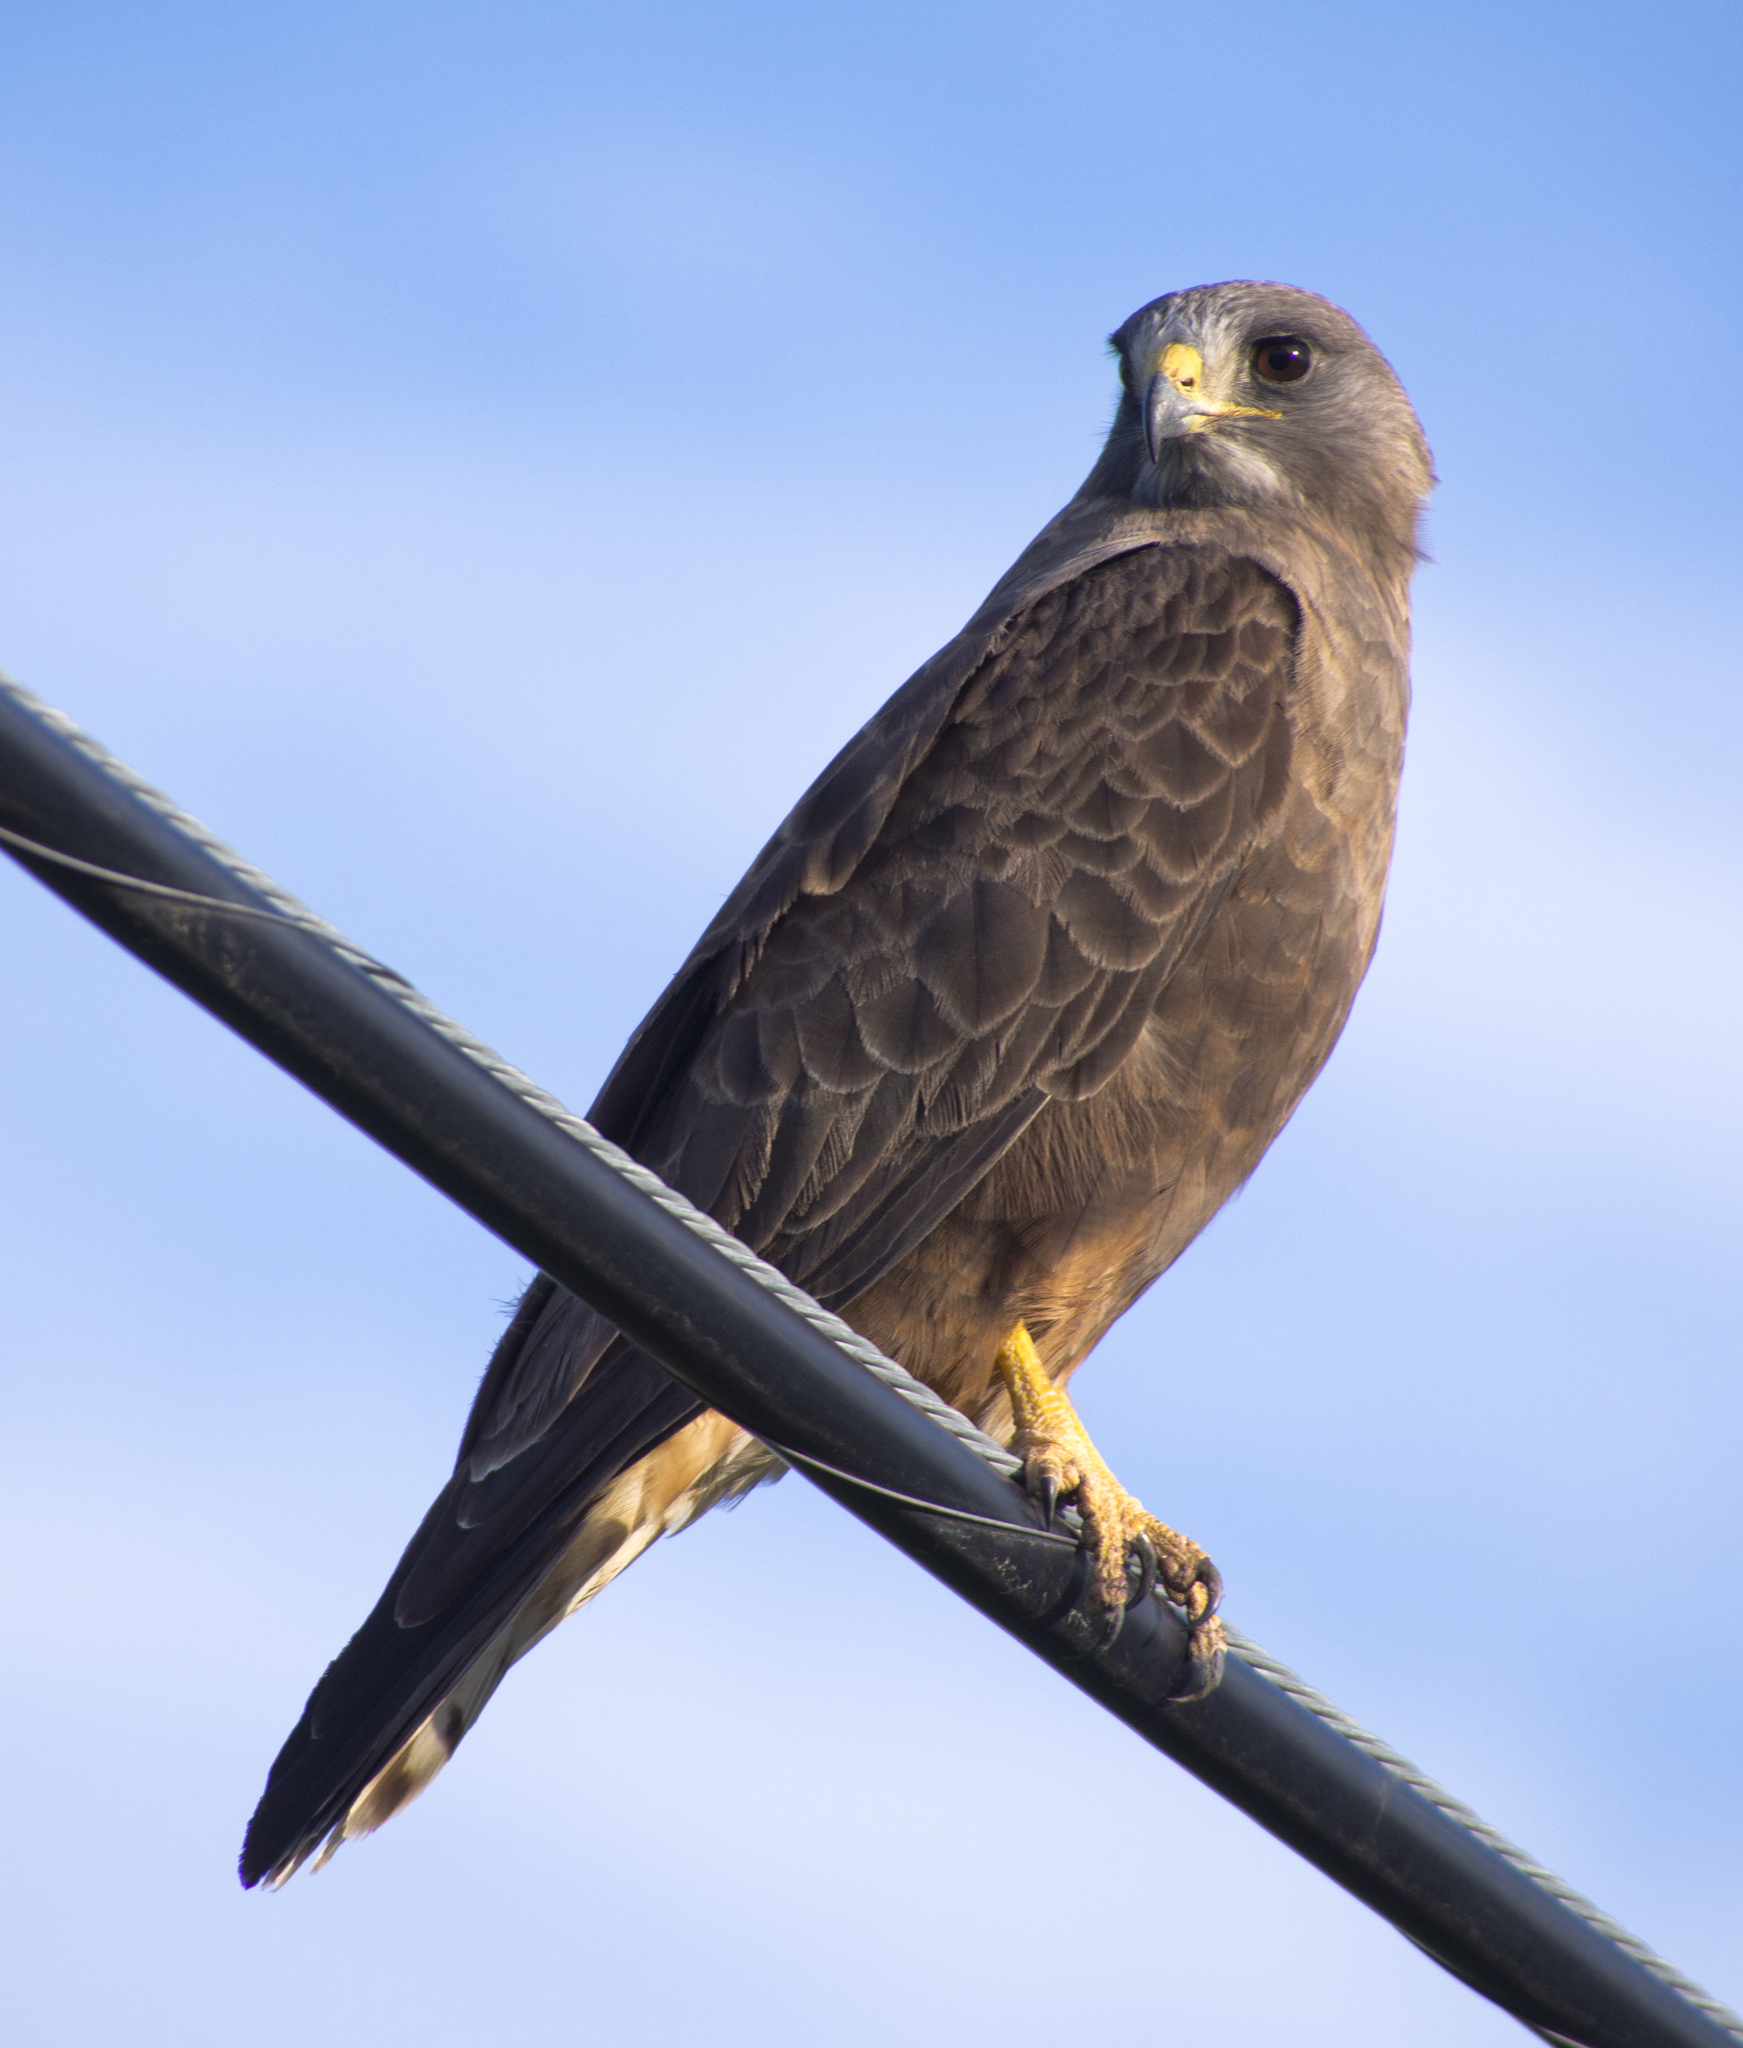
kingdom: Animalia
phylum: Chordata
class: Aves
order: Accipitriformes
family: Accipitridae
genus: Buteo
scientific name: Buteo swainsoni
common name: Swainson's hawk
